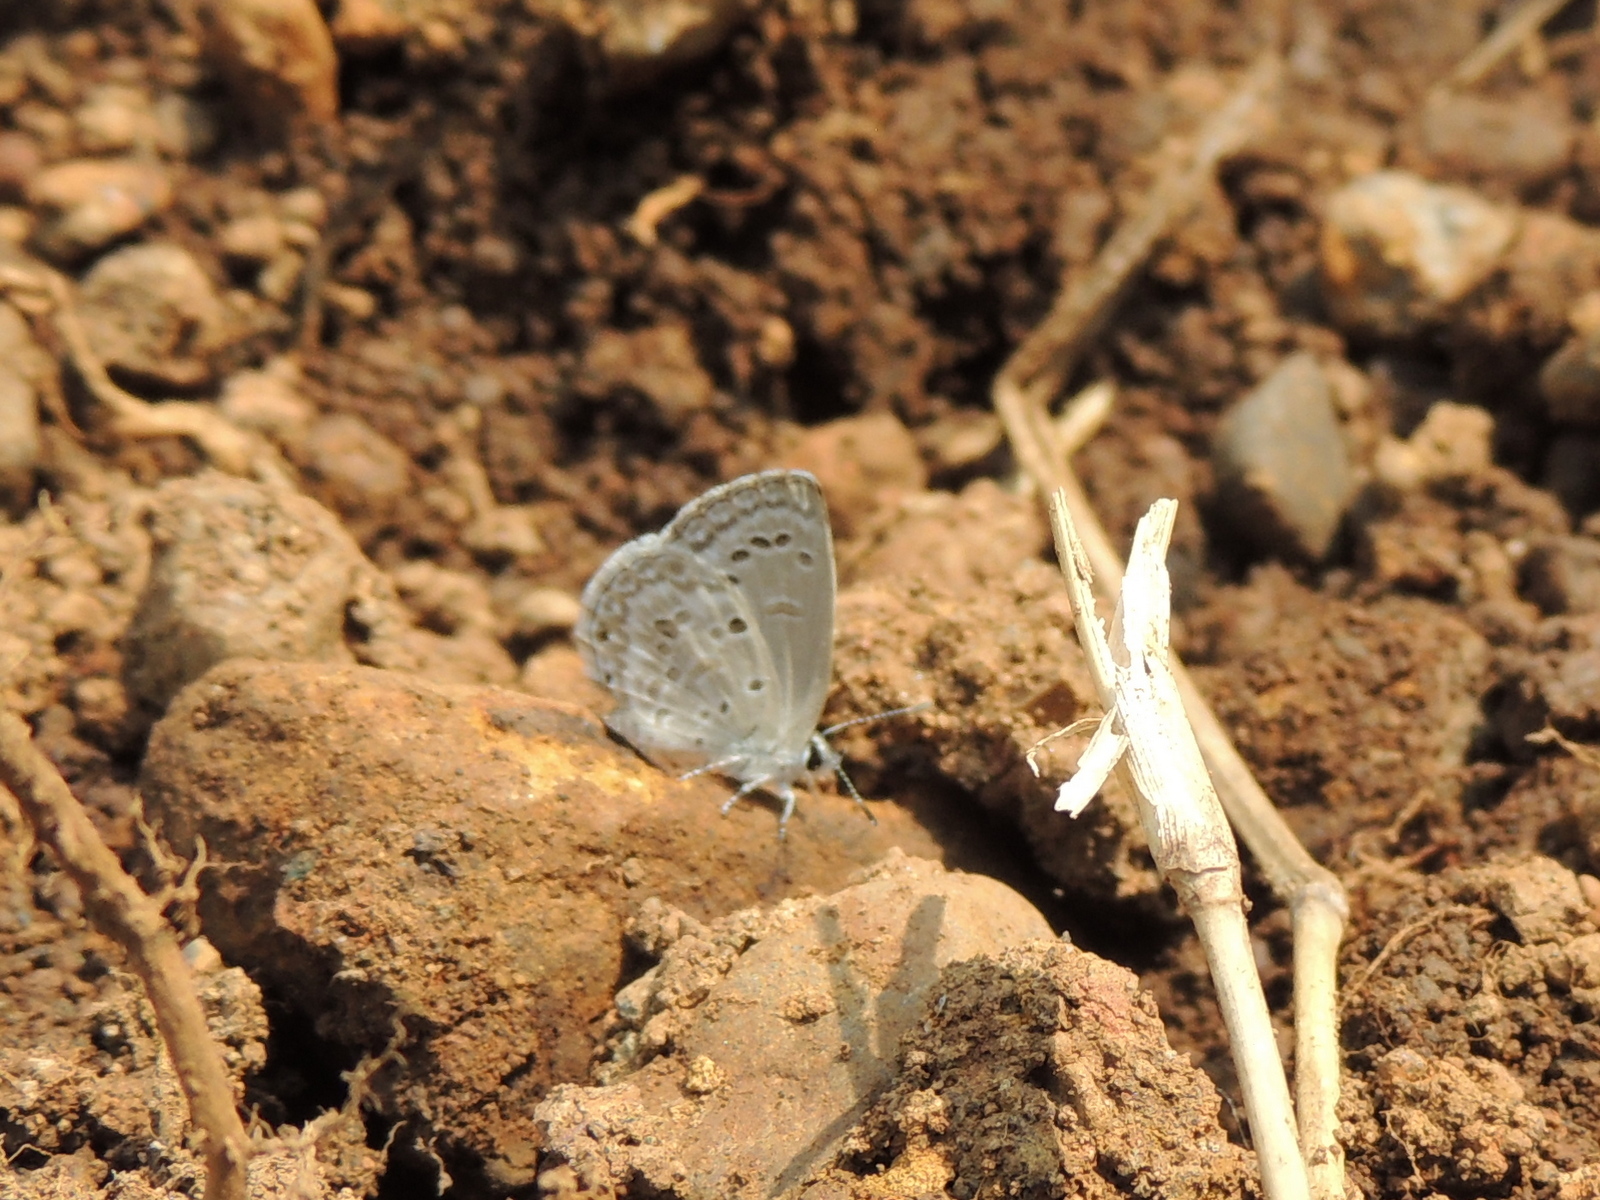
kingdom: Animalia
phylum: Arthropoda
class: Insecta
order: Lepidoptera
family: Lycaenidae
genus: Chilades
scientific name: Chilades laius
